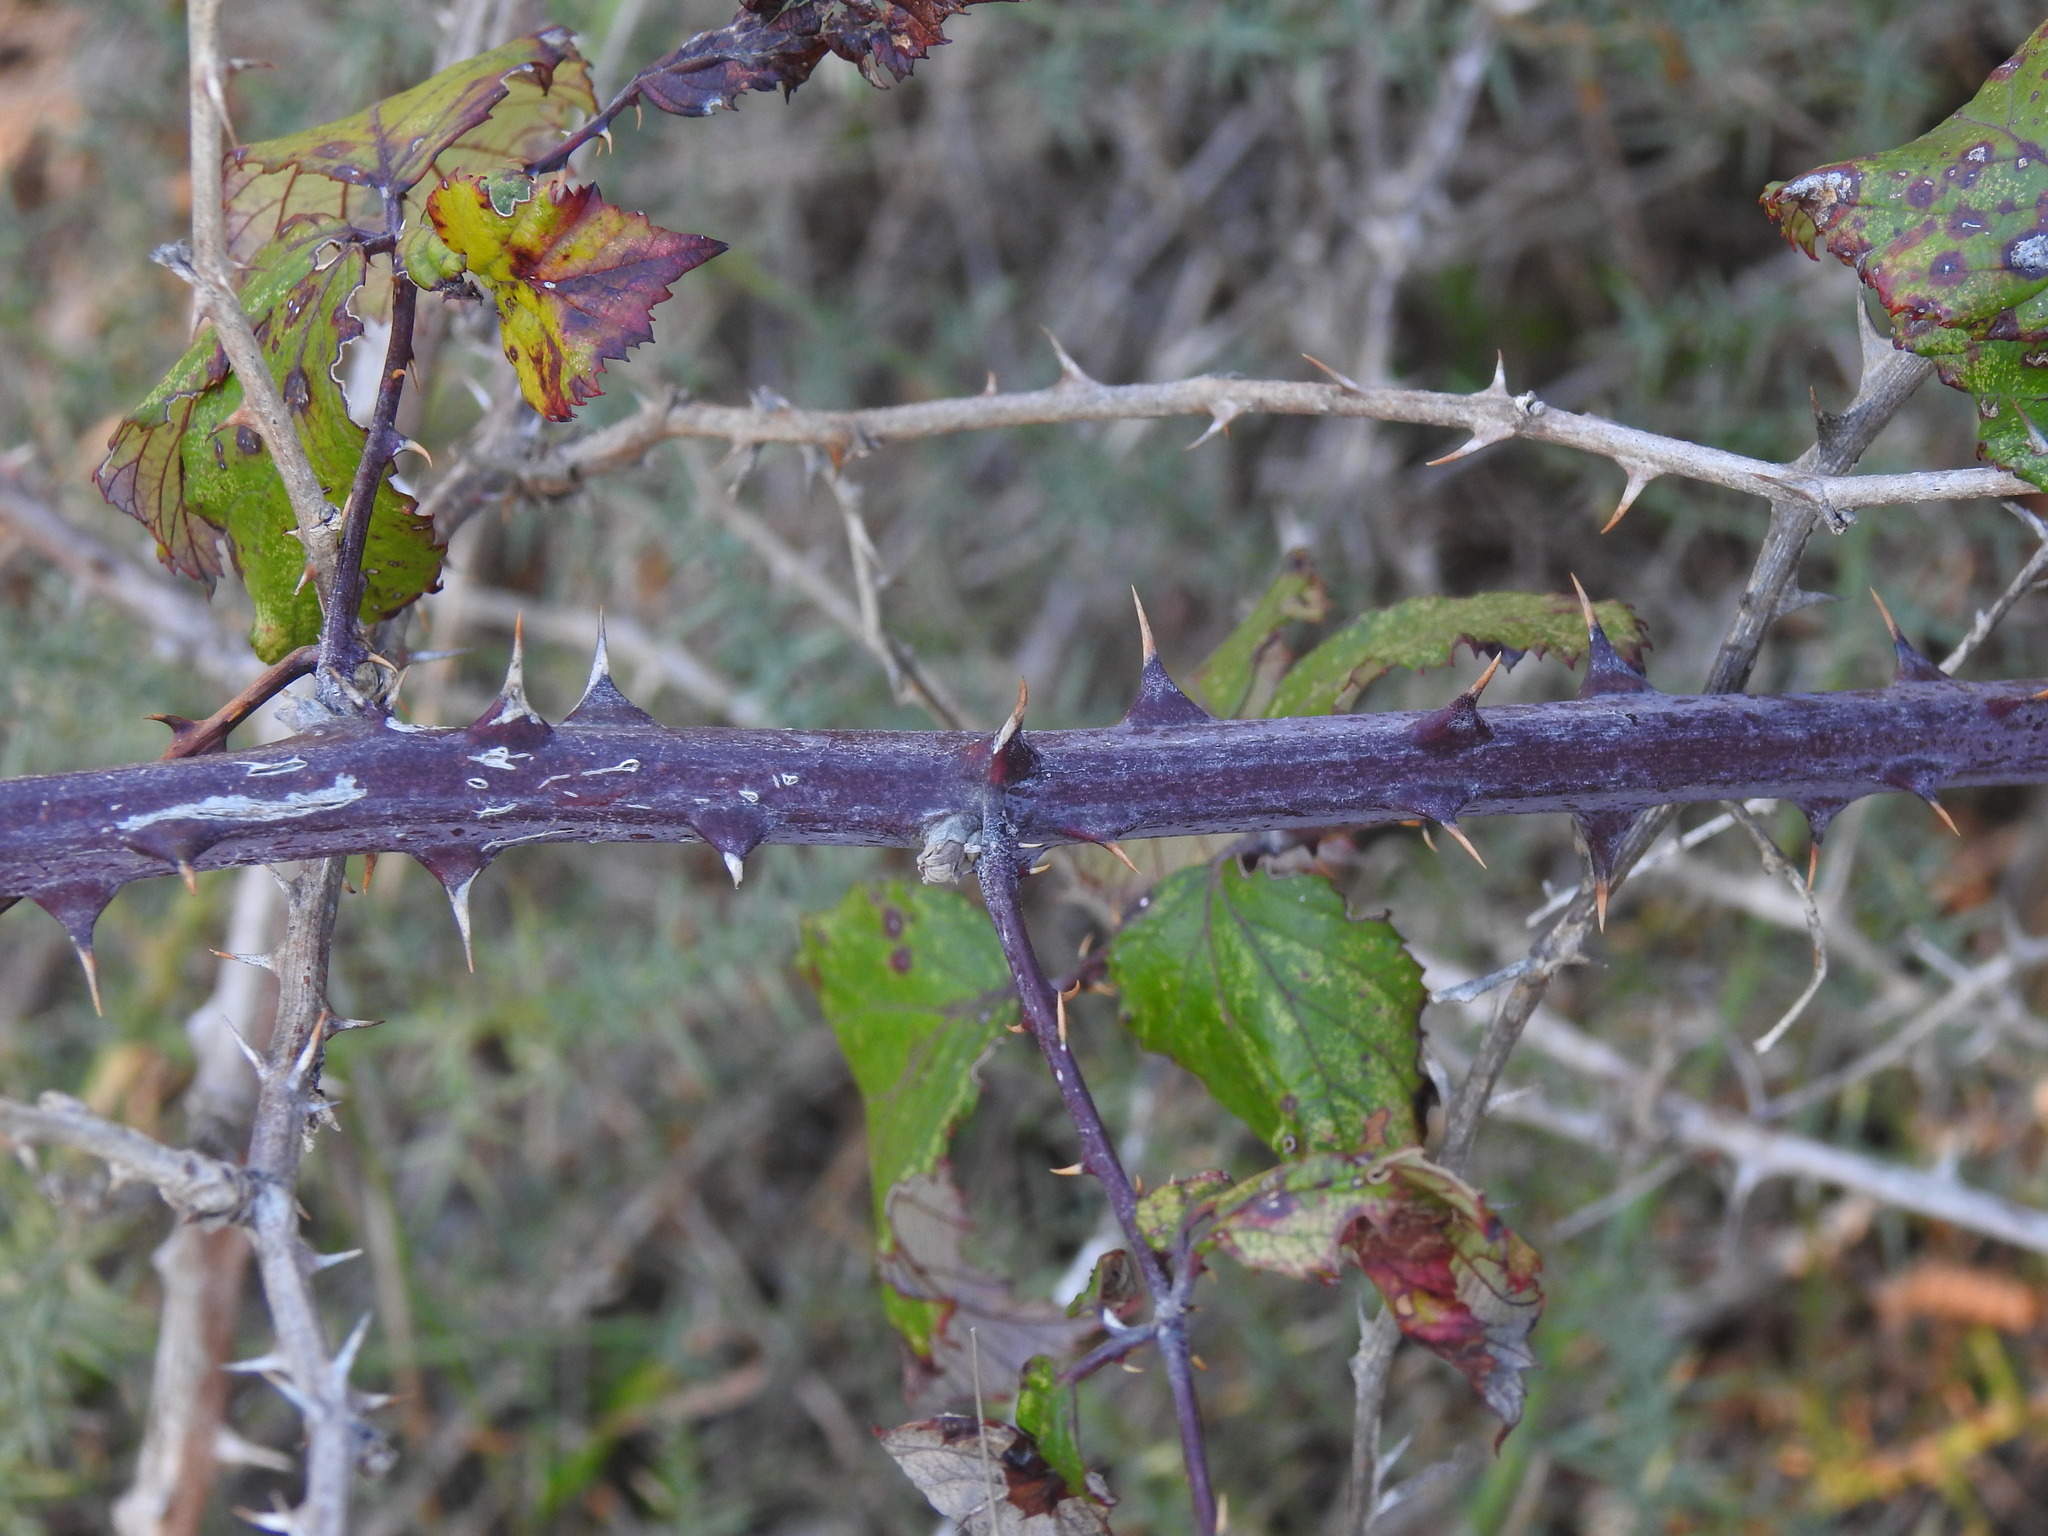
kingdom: Plantae
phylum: Tracheophyta
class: Magnoliopsida
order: Rosales
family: Rosaceae
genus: Rubus
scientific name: Rubus ulmifolius
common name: Elmleaf blackberry
